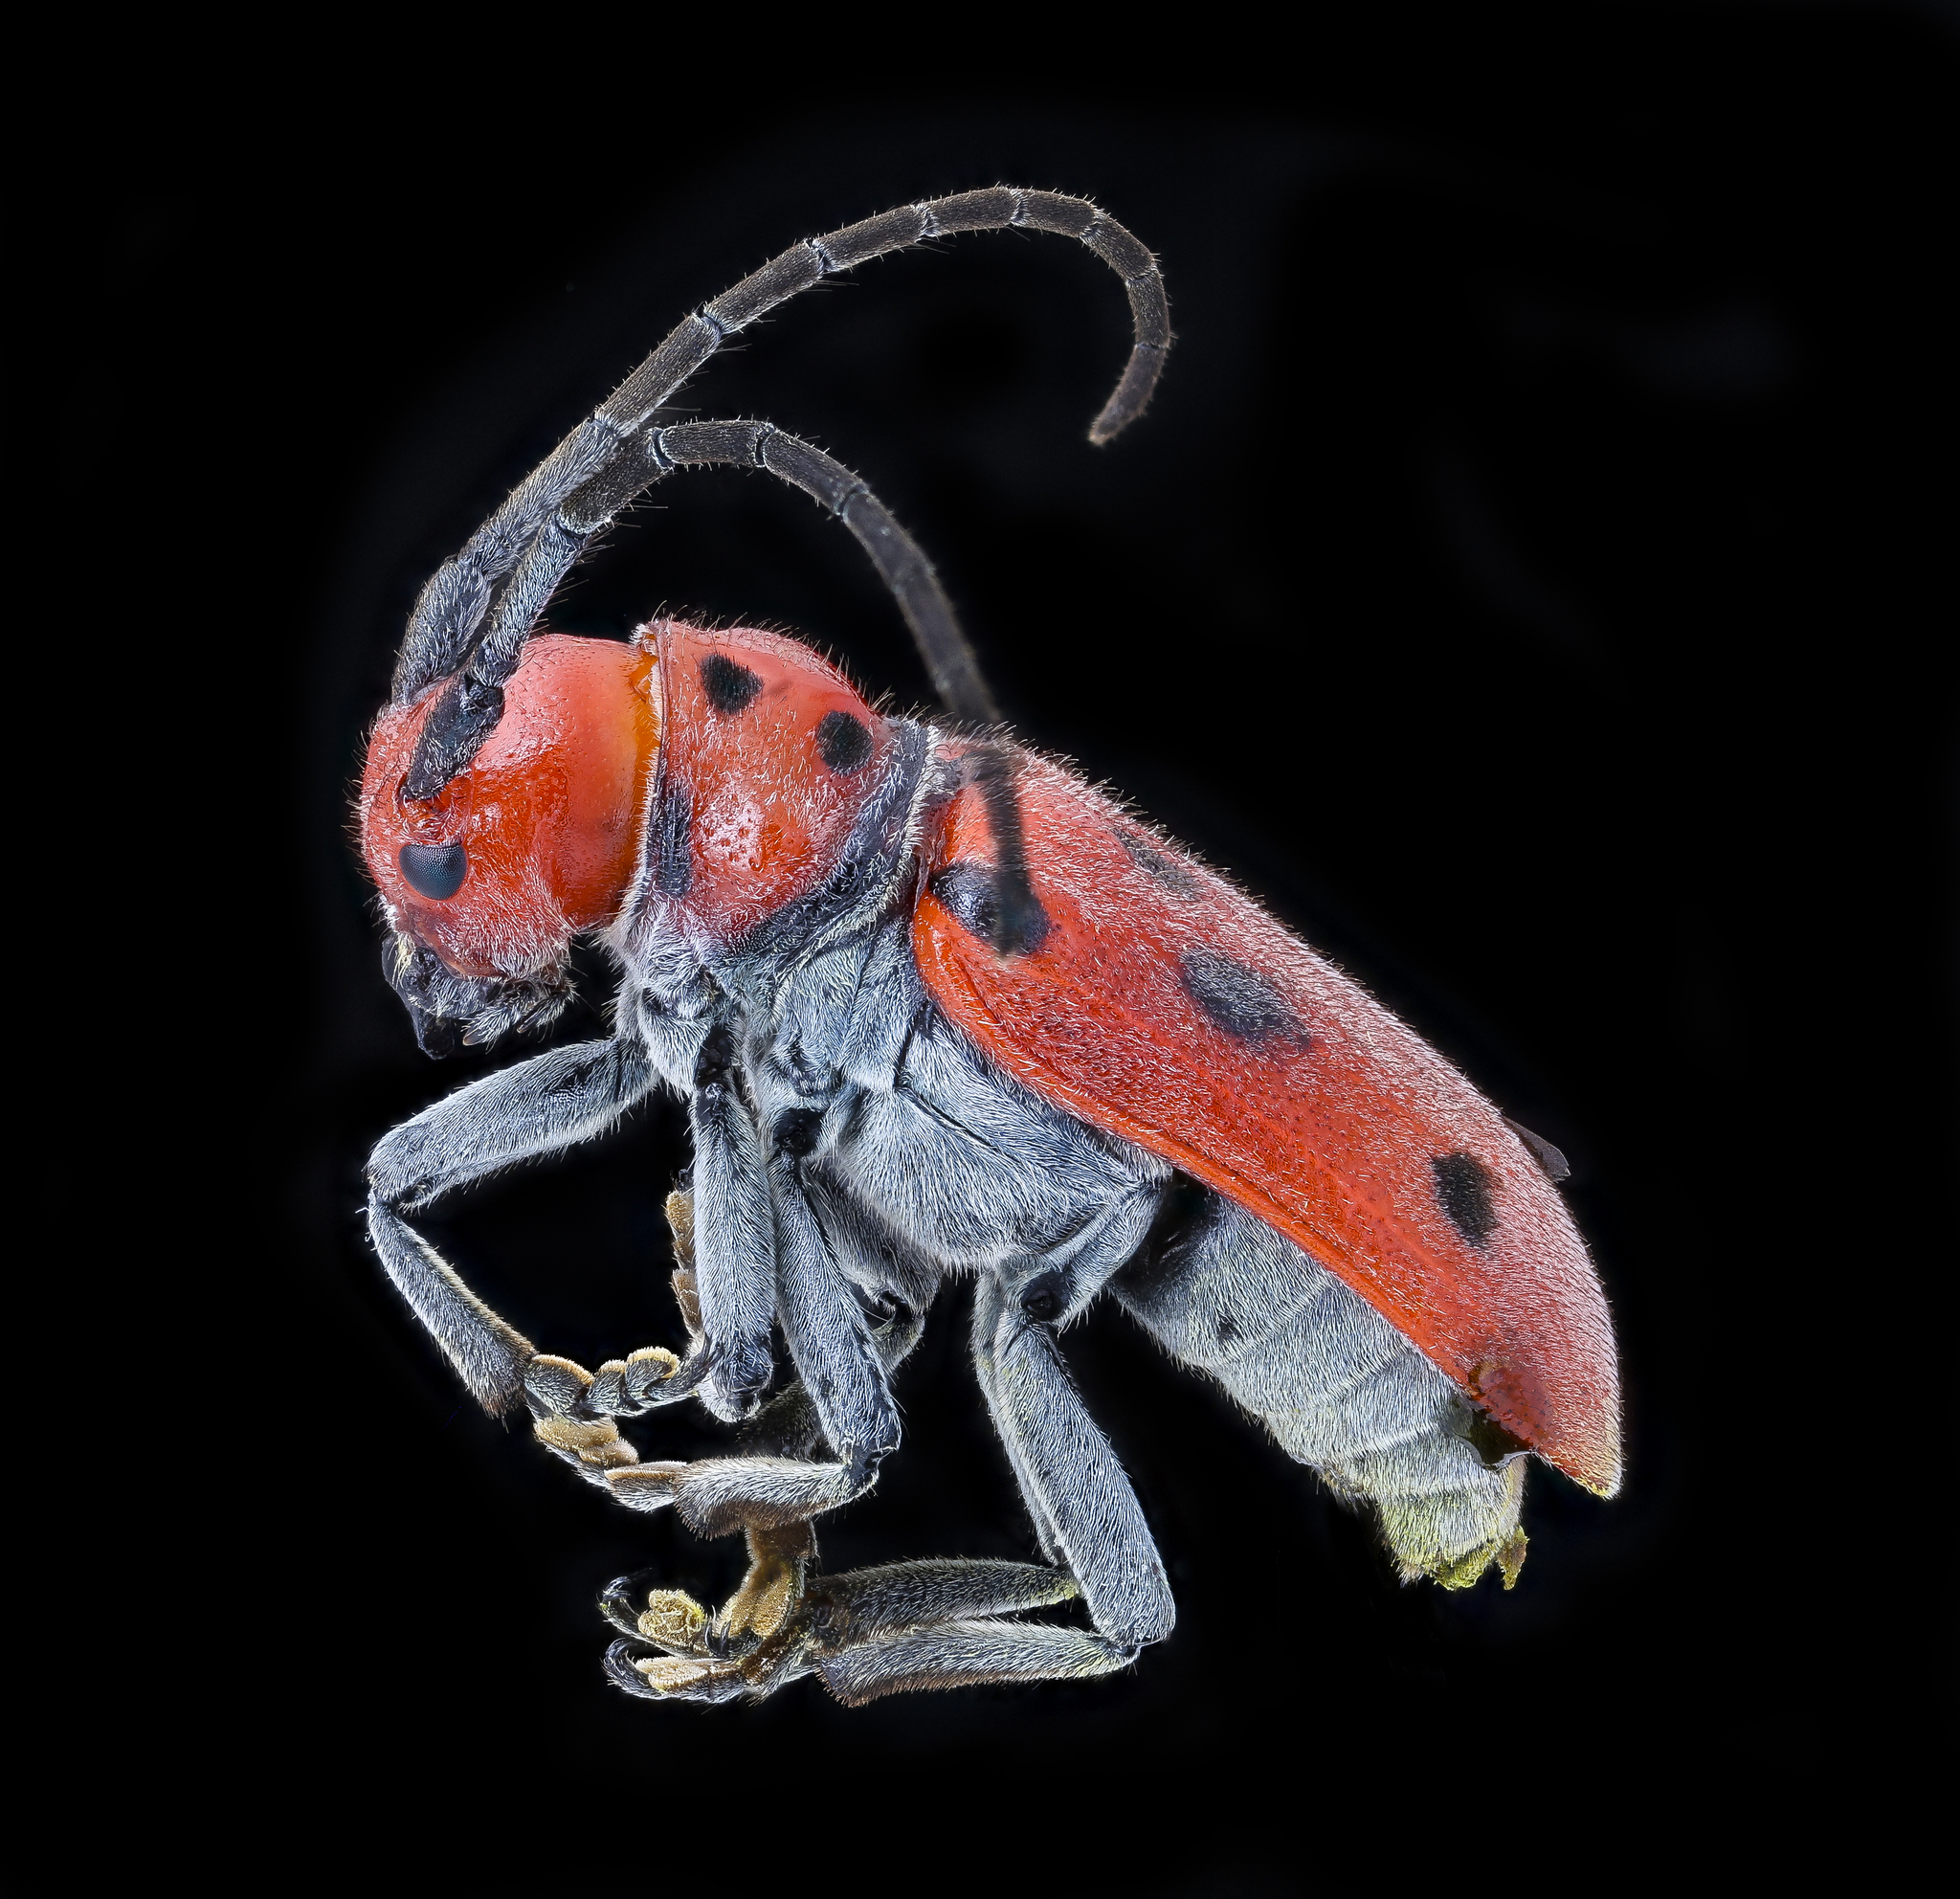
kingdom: Animalia
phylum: Arthropoda
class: Insecta
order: Coleoptera
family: Cerambycidae
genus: Tetraopes
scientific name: Tetraopes tetrophthalmus
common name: Red milkweed beetle
